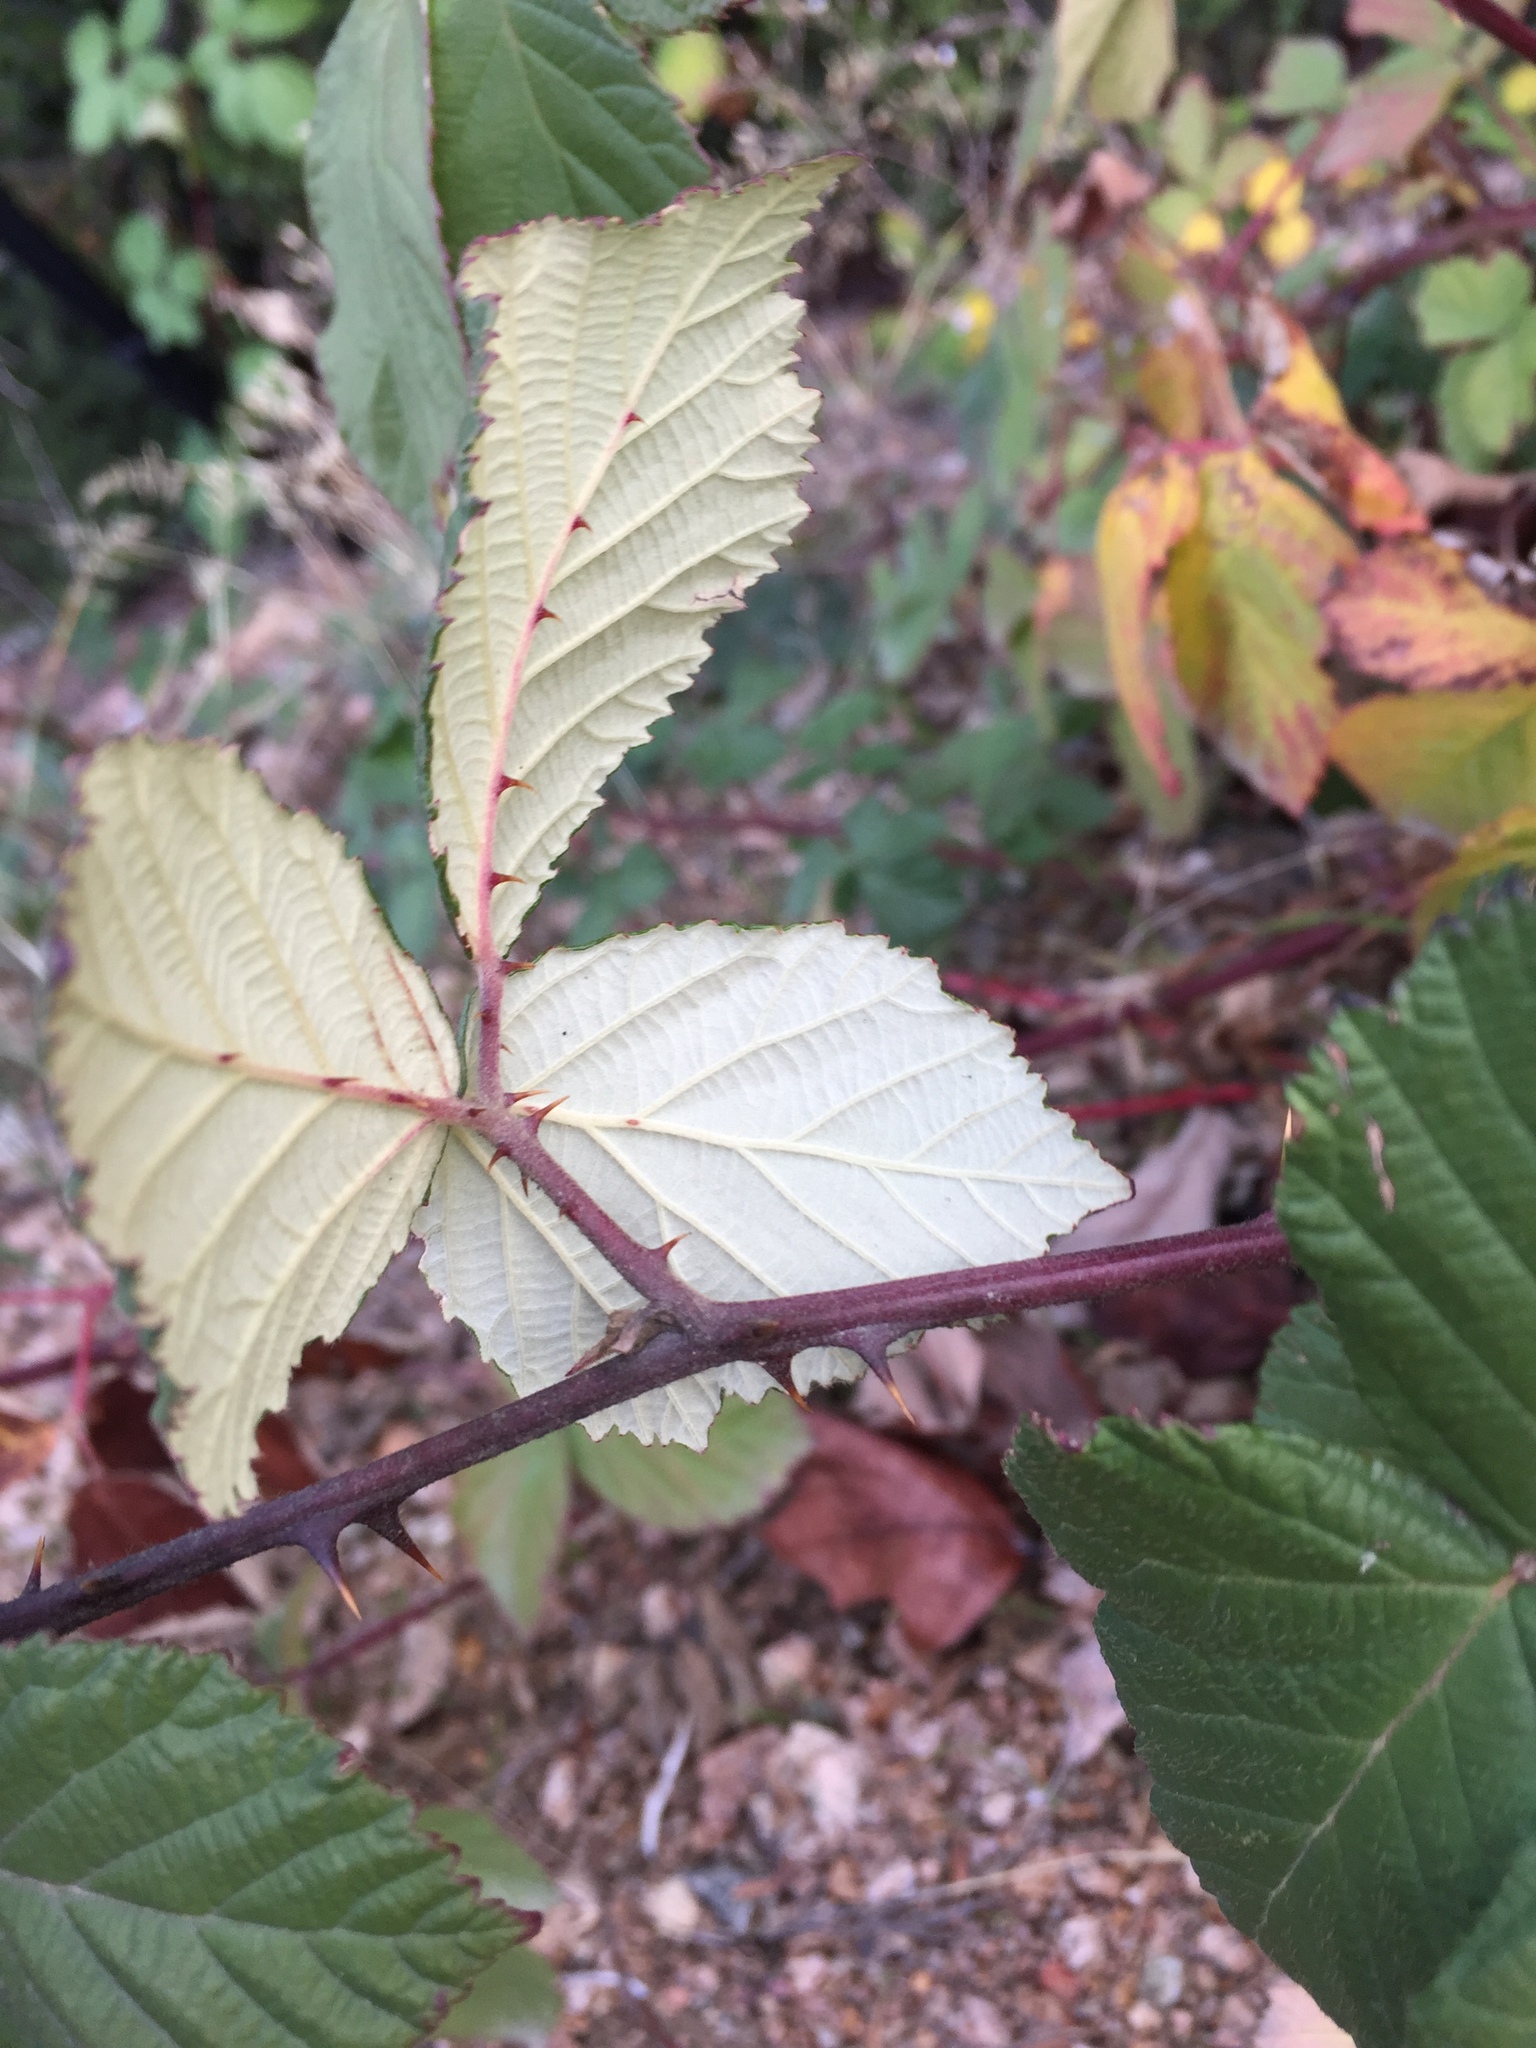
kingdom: Plantae
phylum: Tracheophyta
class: Magnoliopsida
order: Rosales
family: Rosaceae
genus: Rubus
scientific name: Rubus armeniacus
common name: Himalayan blackberry
